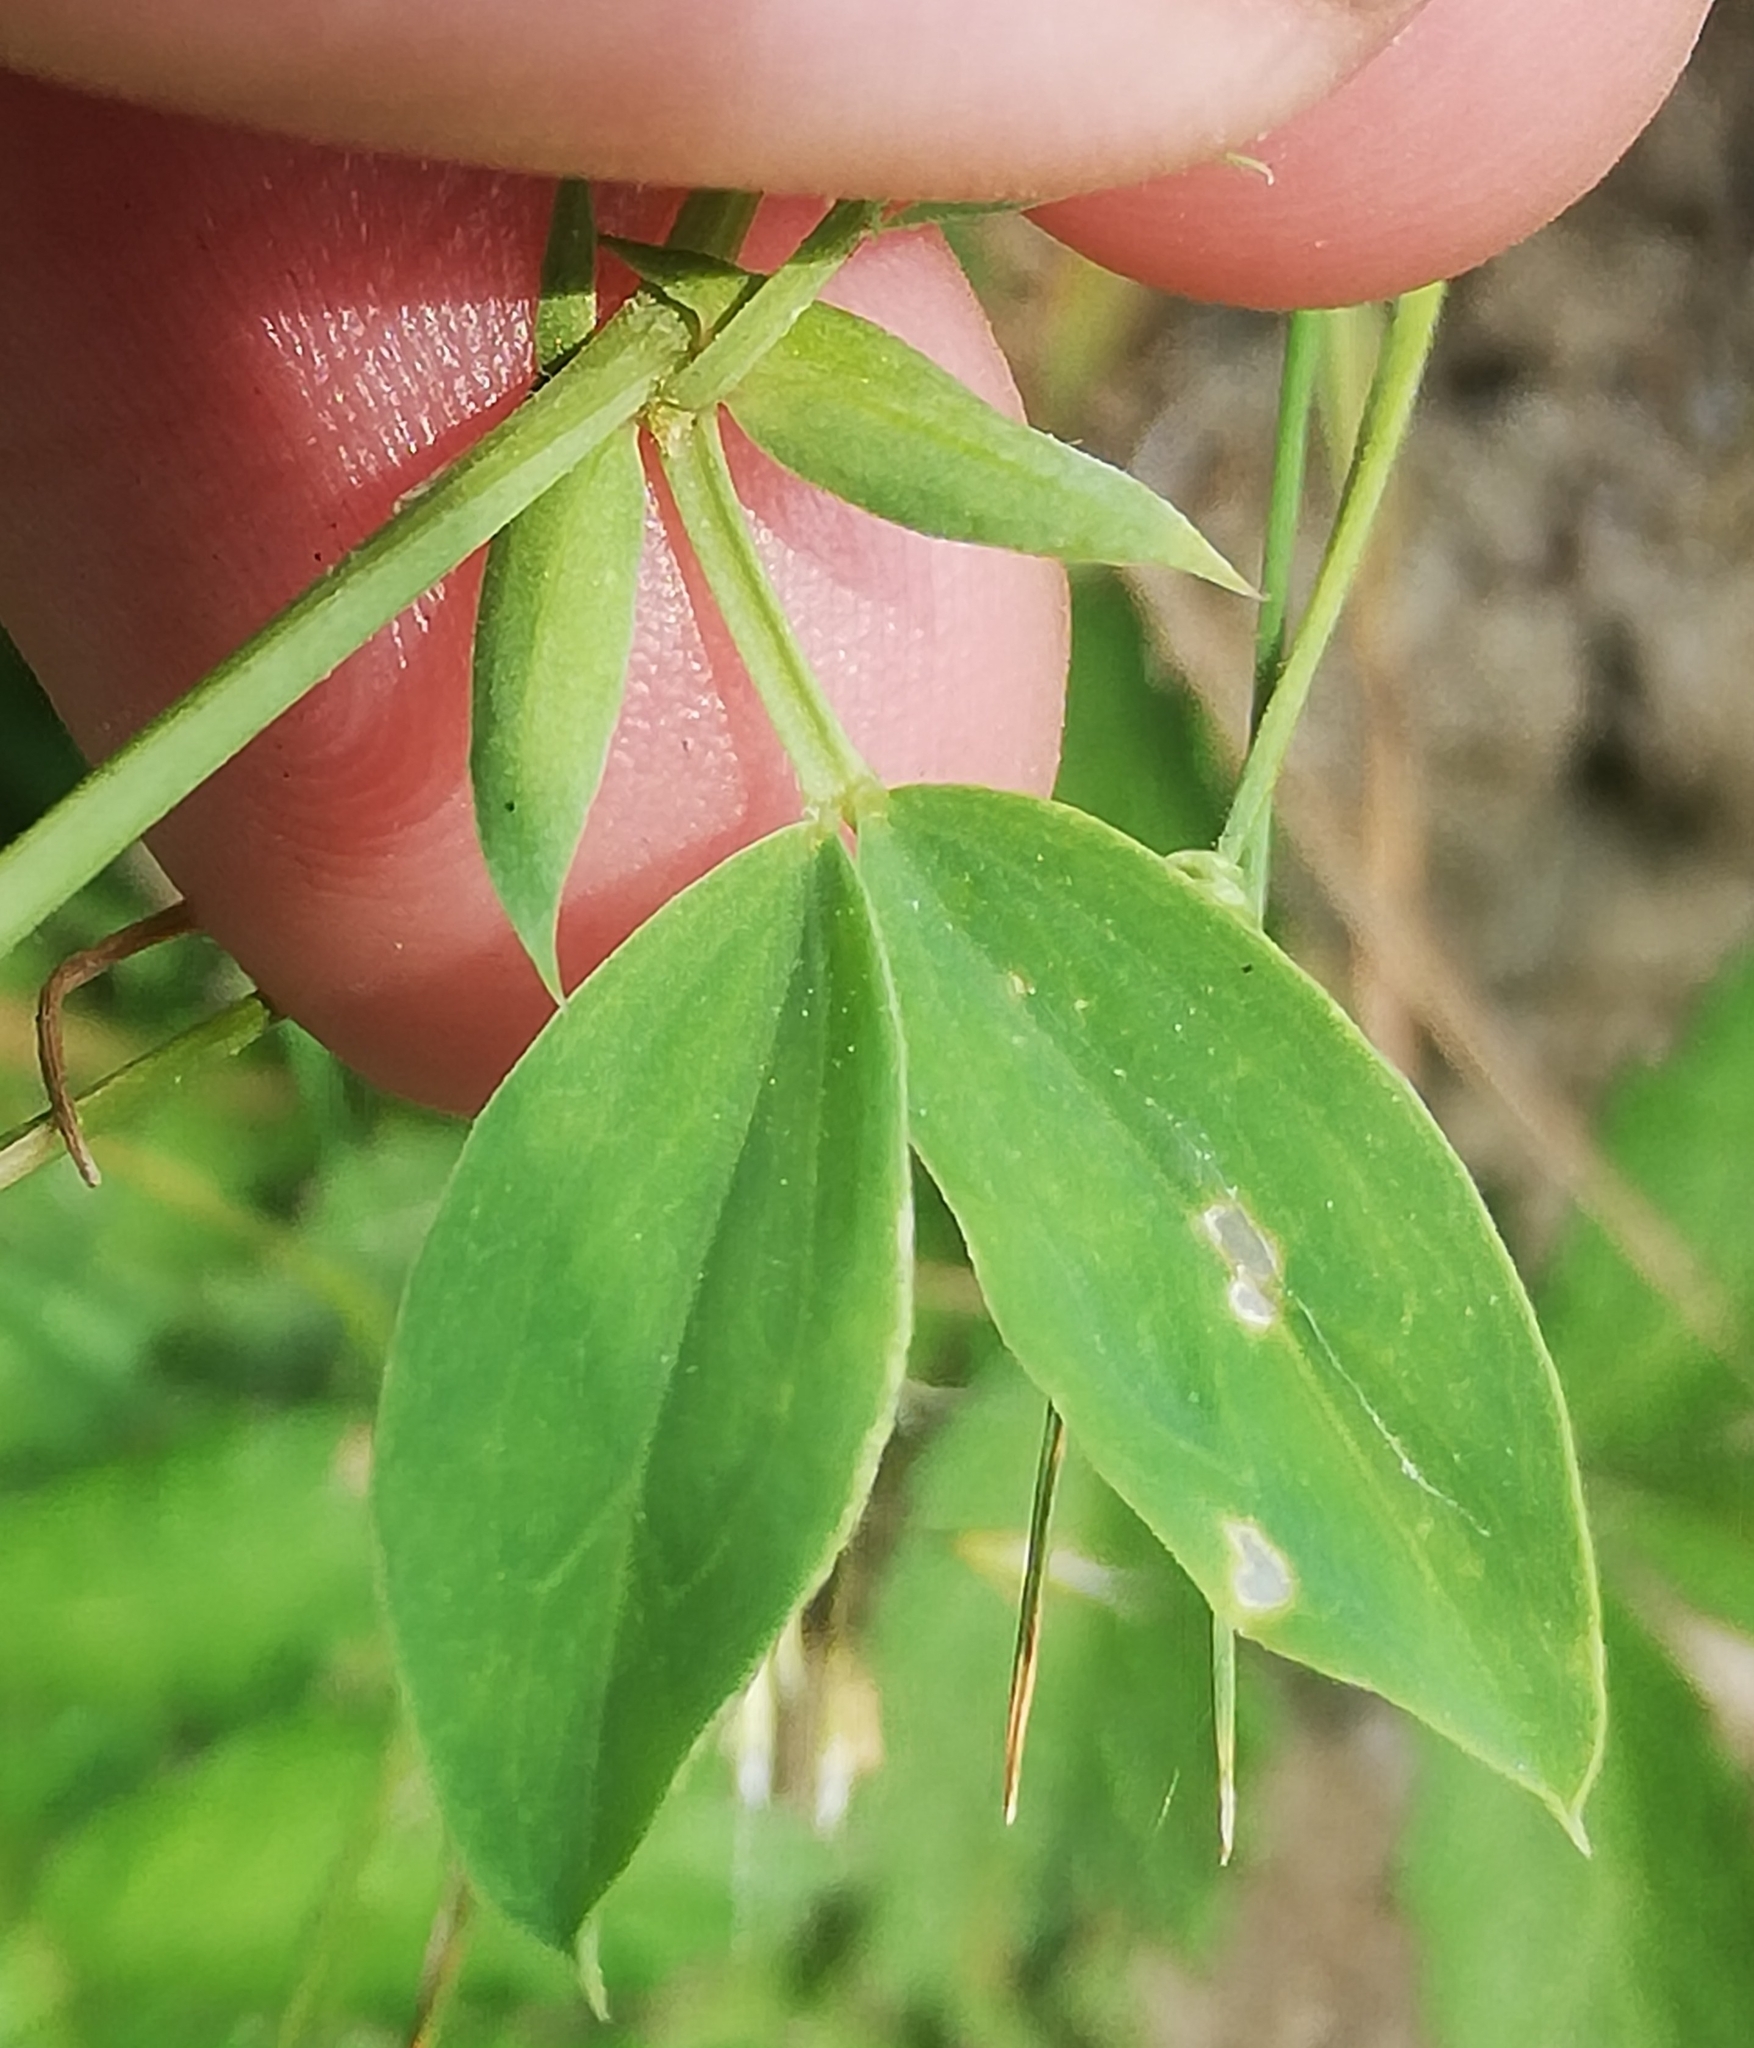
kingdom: Plantae
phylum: Tracheophyta
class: Magnoliopsida
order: Fabales
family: Fabaceae
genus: Lathyrus
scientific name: Lathyrus tuberosus
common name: Tuberous pea
